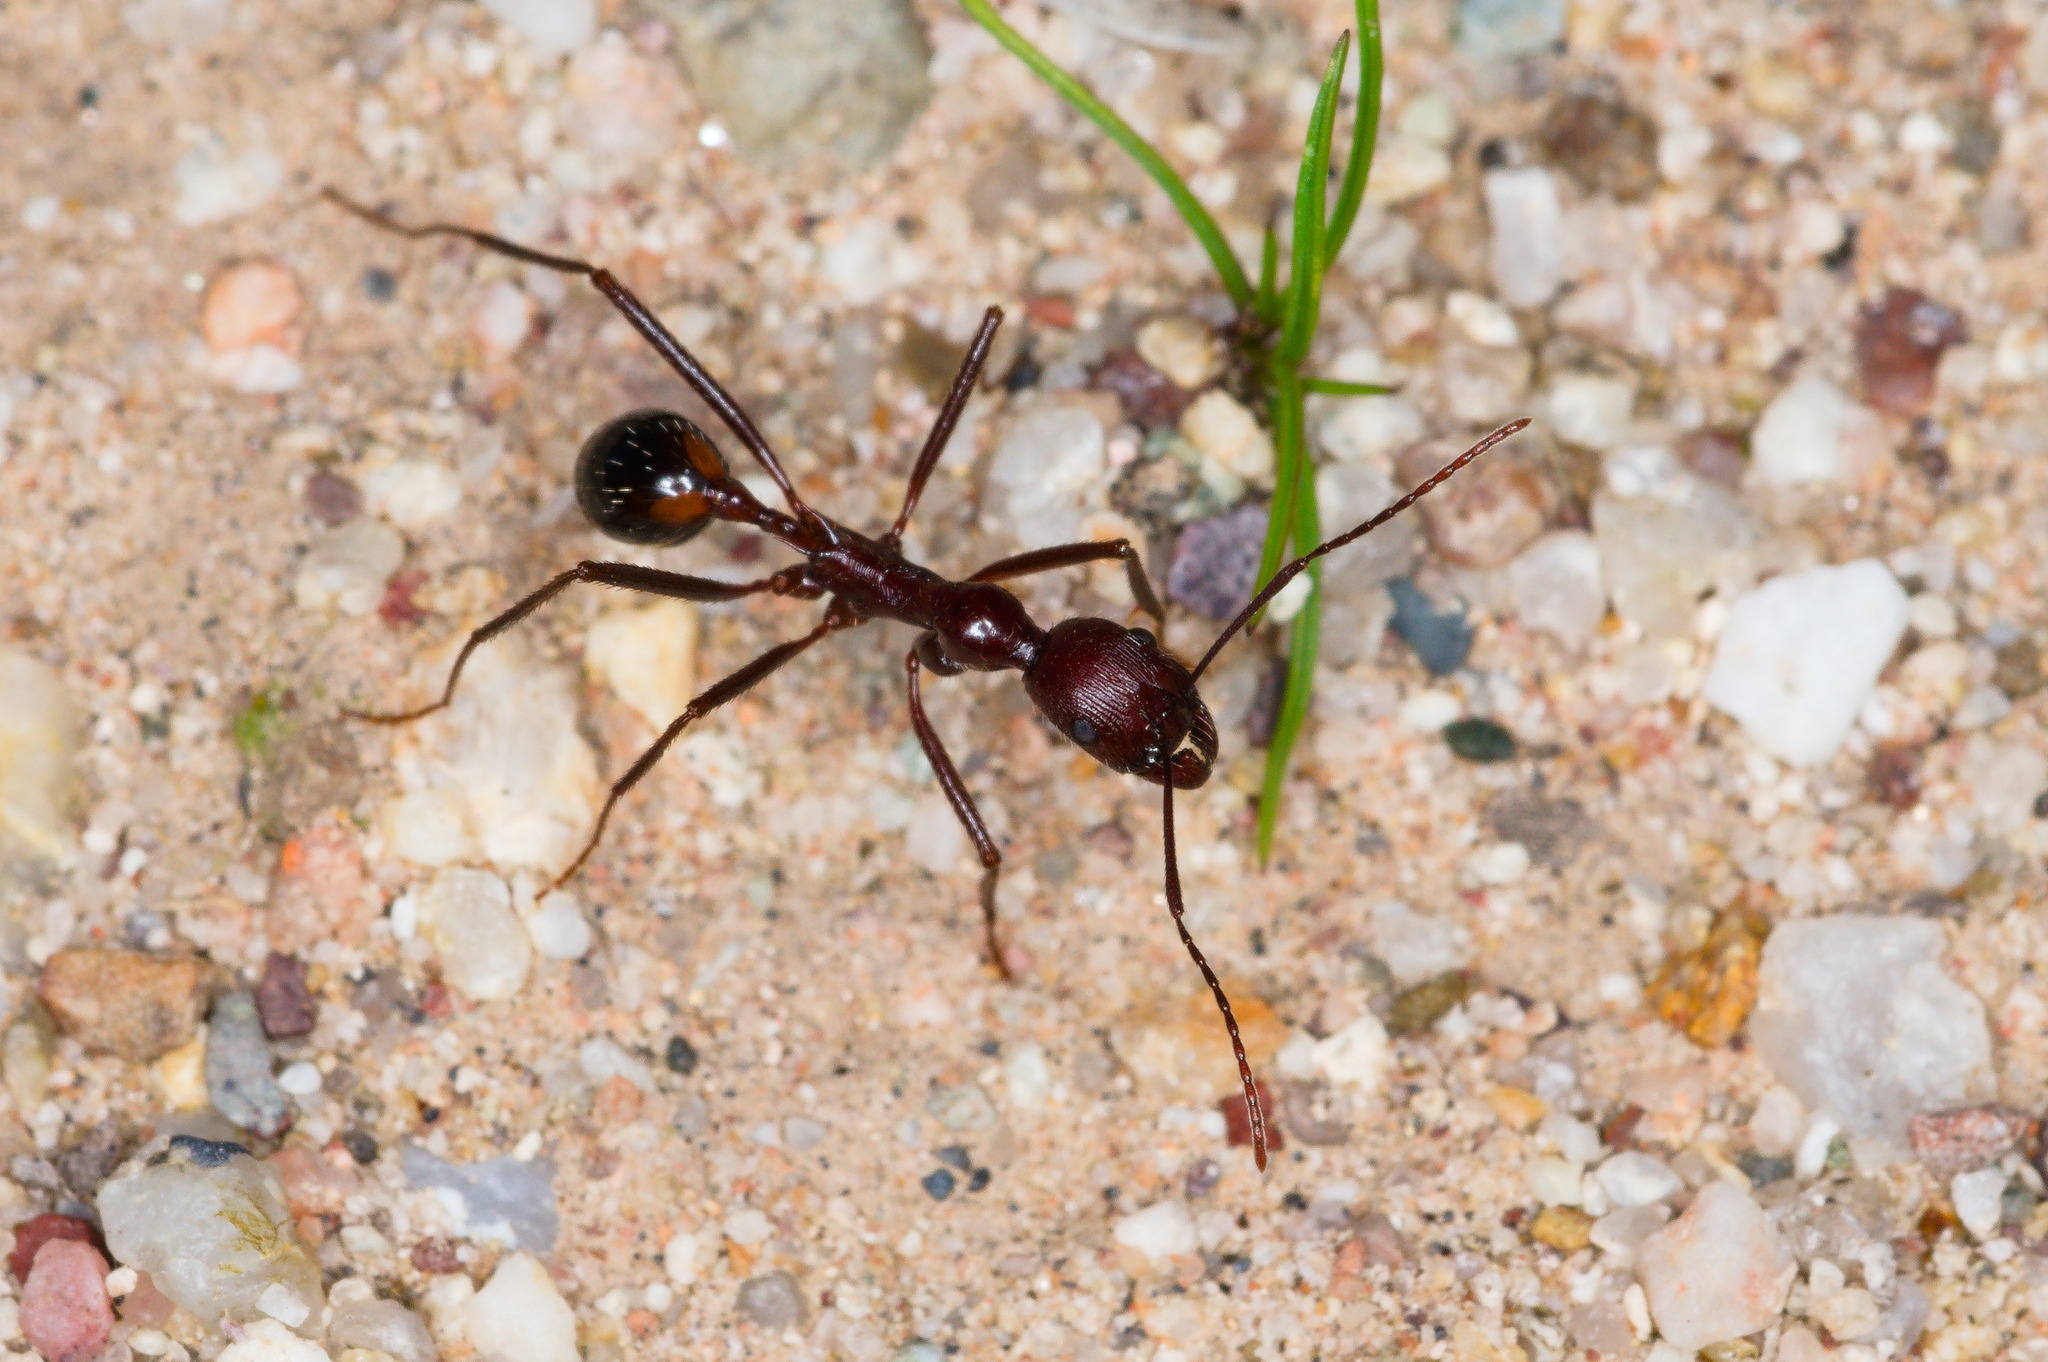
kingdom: Animalia
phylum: Arthropoda
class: Insecta
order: Hymenoptera
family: Formicidae
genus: Novomessor
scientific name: Novomessor cockerelli
